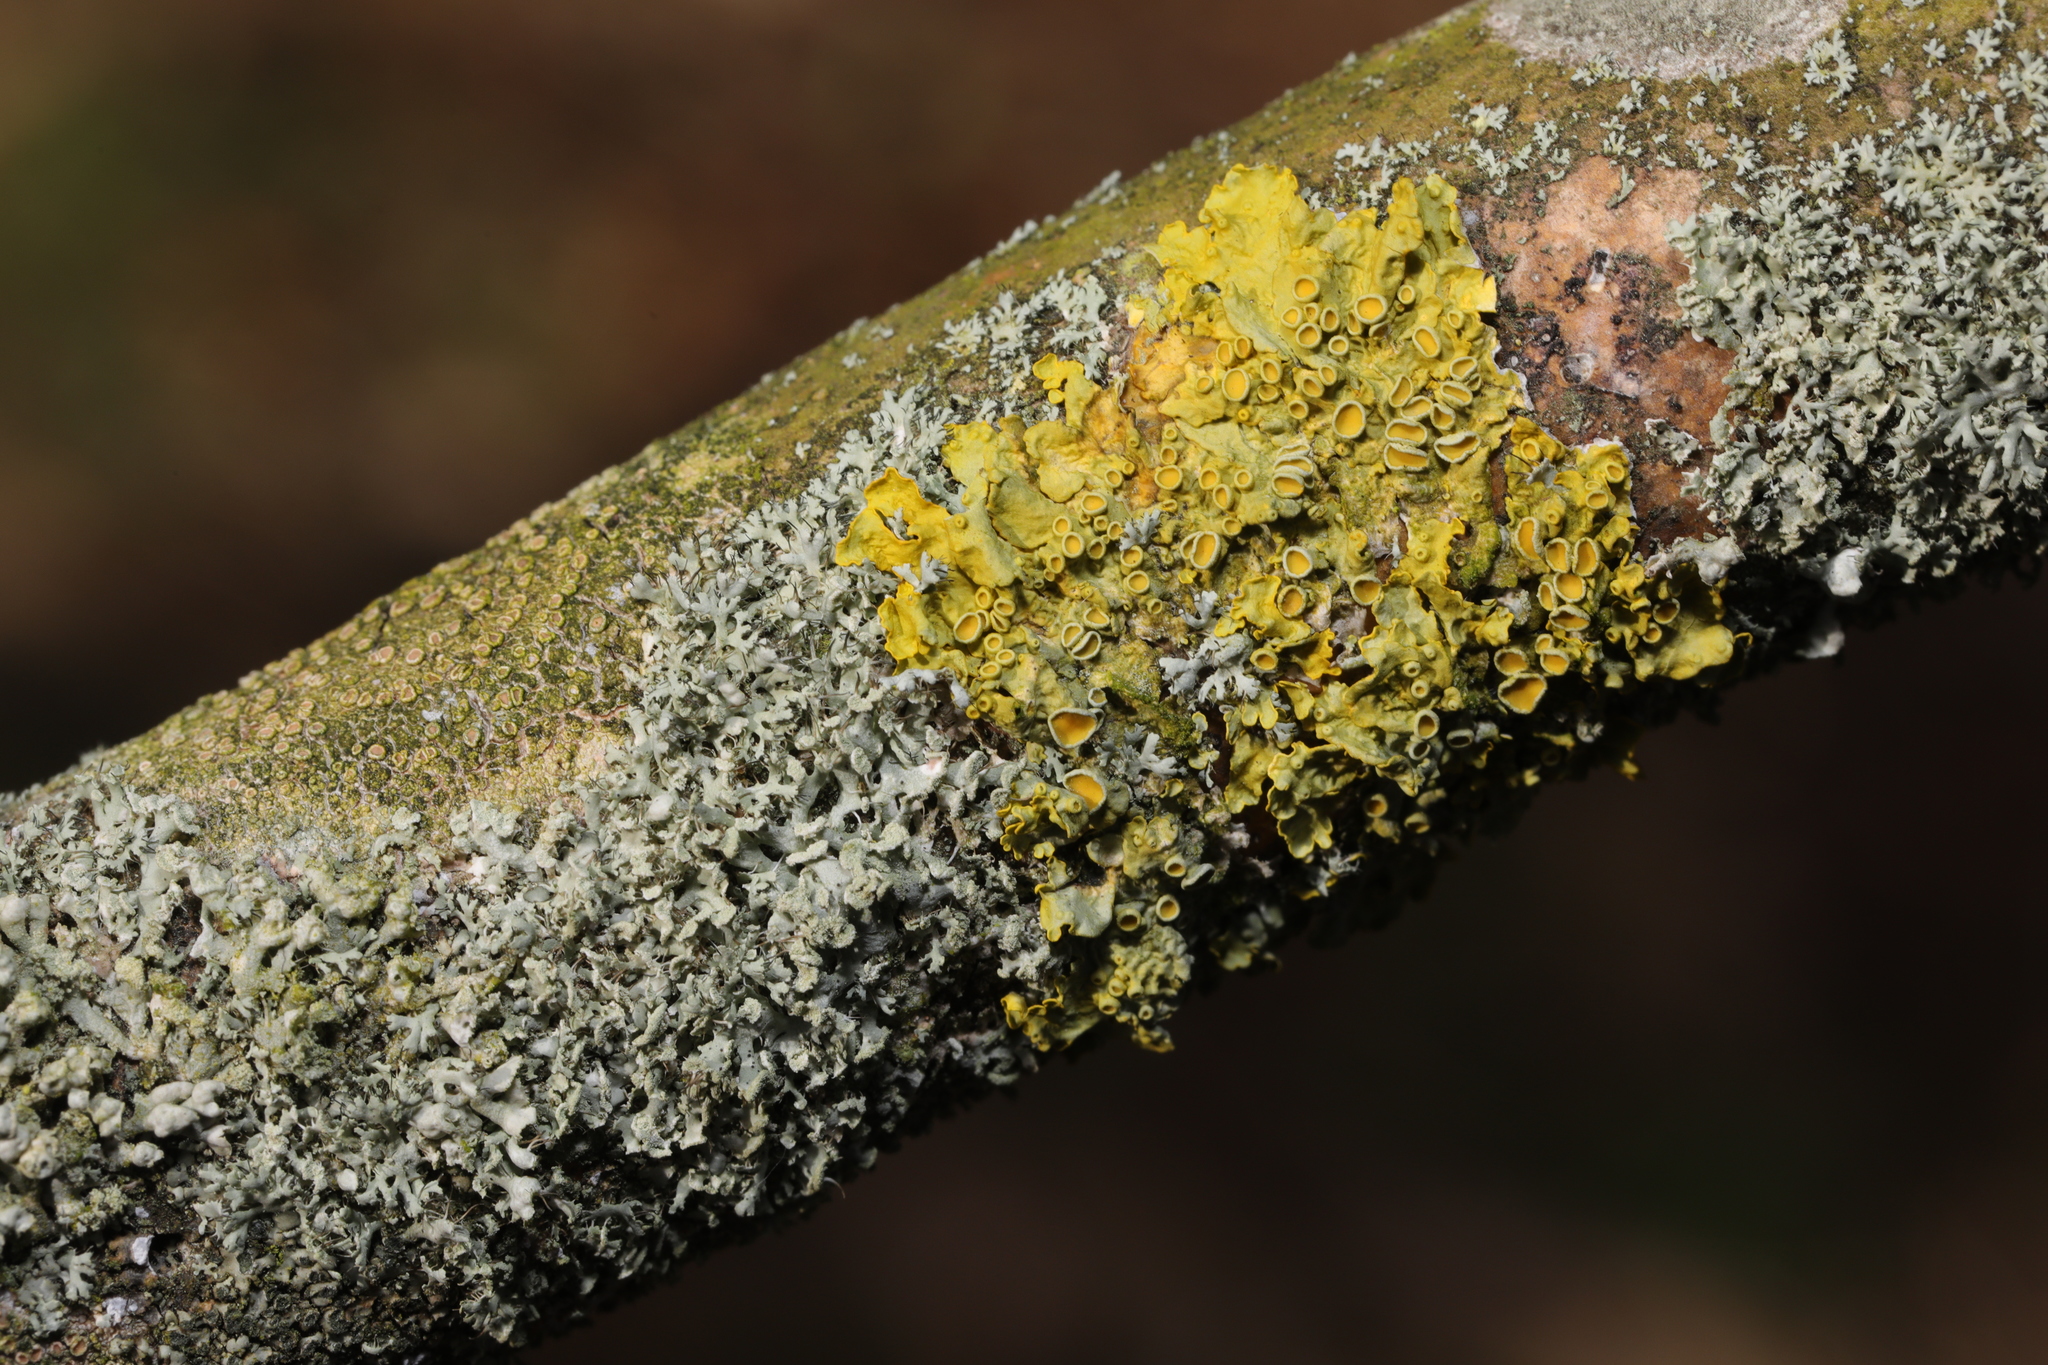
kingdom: Fungi
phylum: Ascomycota
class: Lecanoromycetes
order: Teloschistales
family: Teloschistaceae
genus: Xanthoria
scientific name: Xanthoria parietina
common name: Common orange lichen
